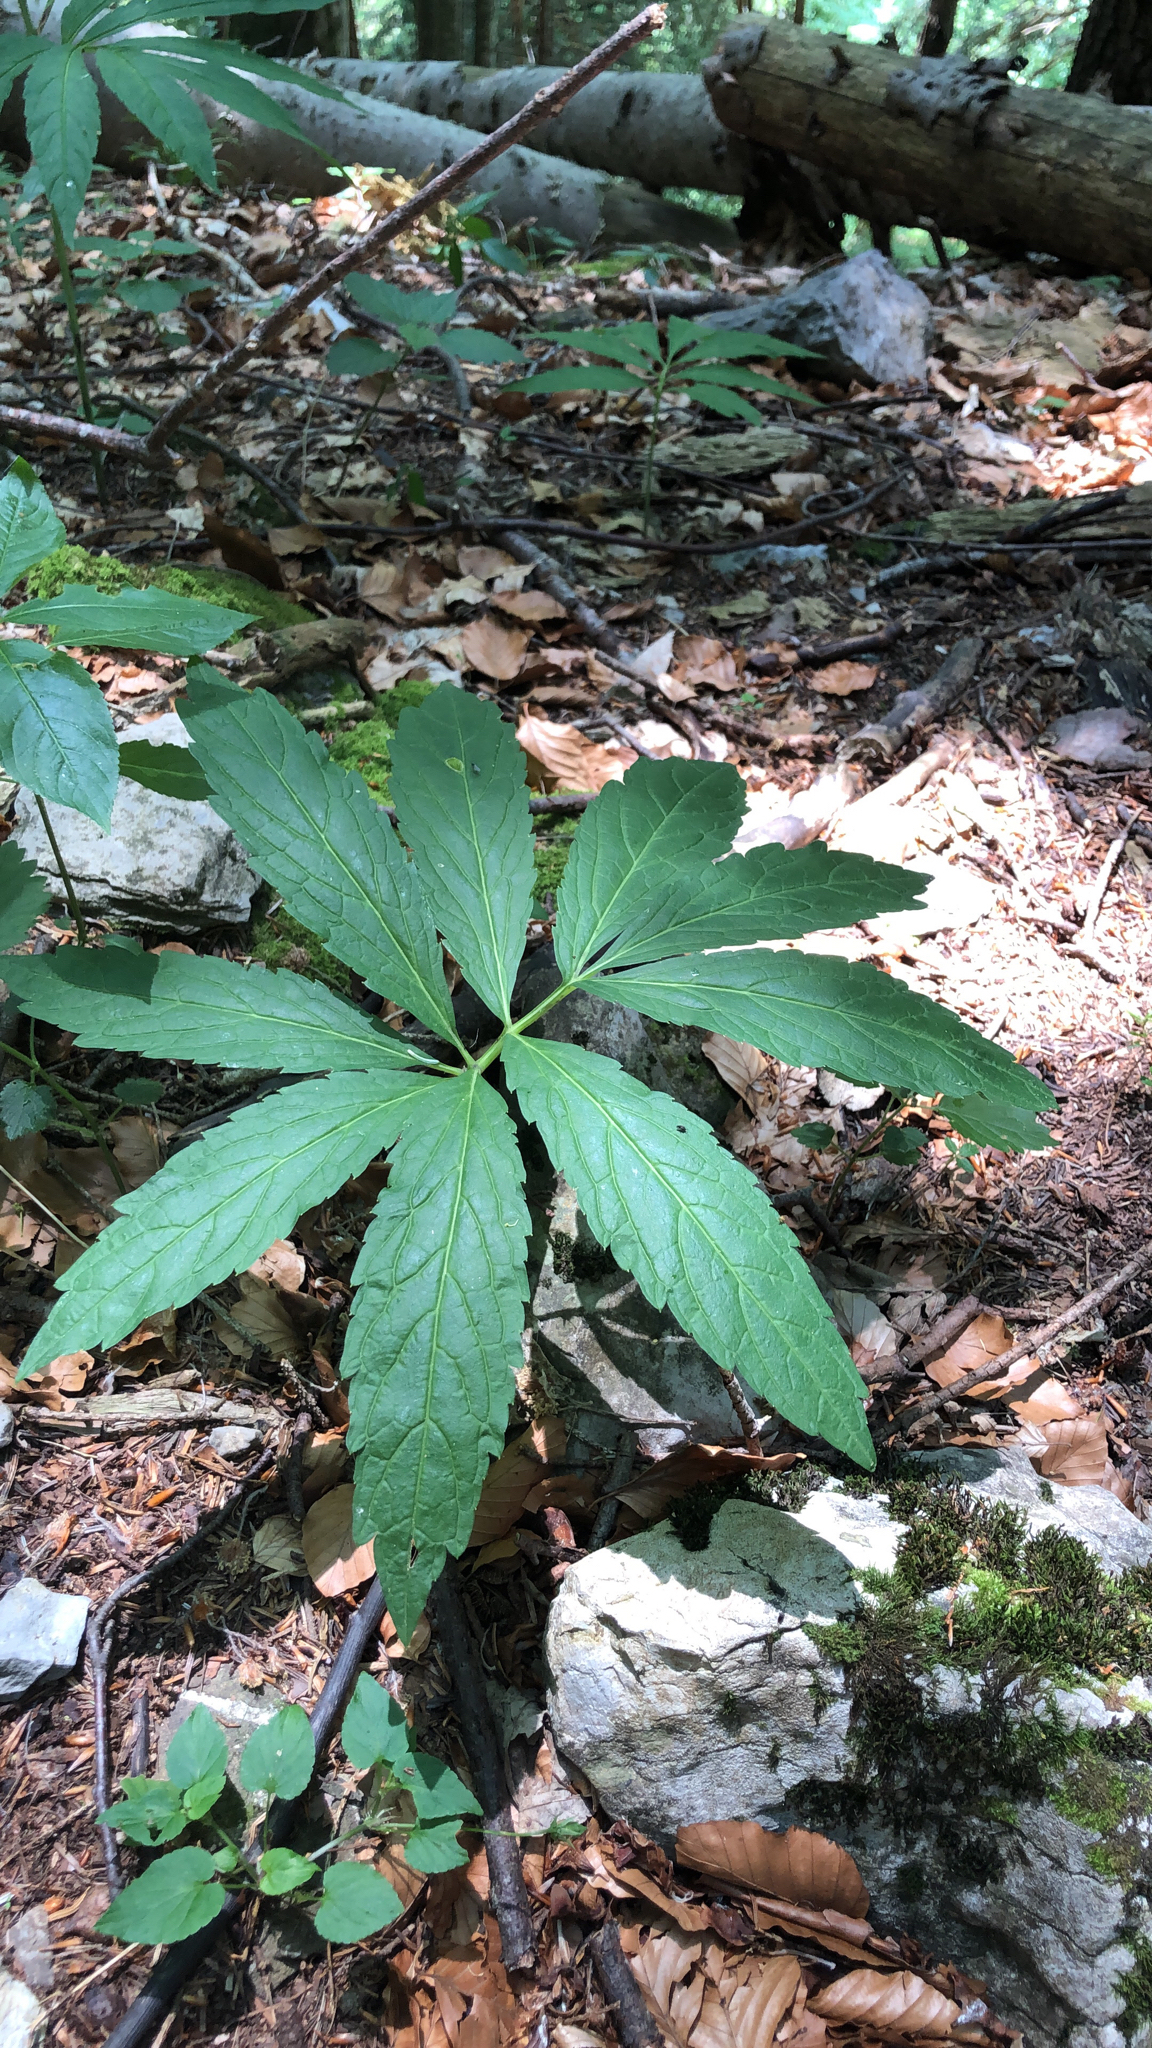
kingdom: Plantae
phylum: Tracheophyta
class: Magnoliopsida
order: Brassicales
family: Brassicaceae
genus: Cardamine
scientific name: Cardamine heptaphylla
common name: Pinnate coralroot
